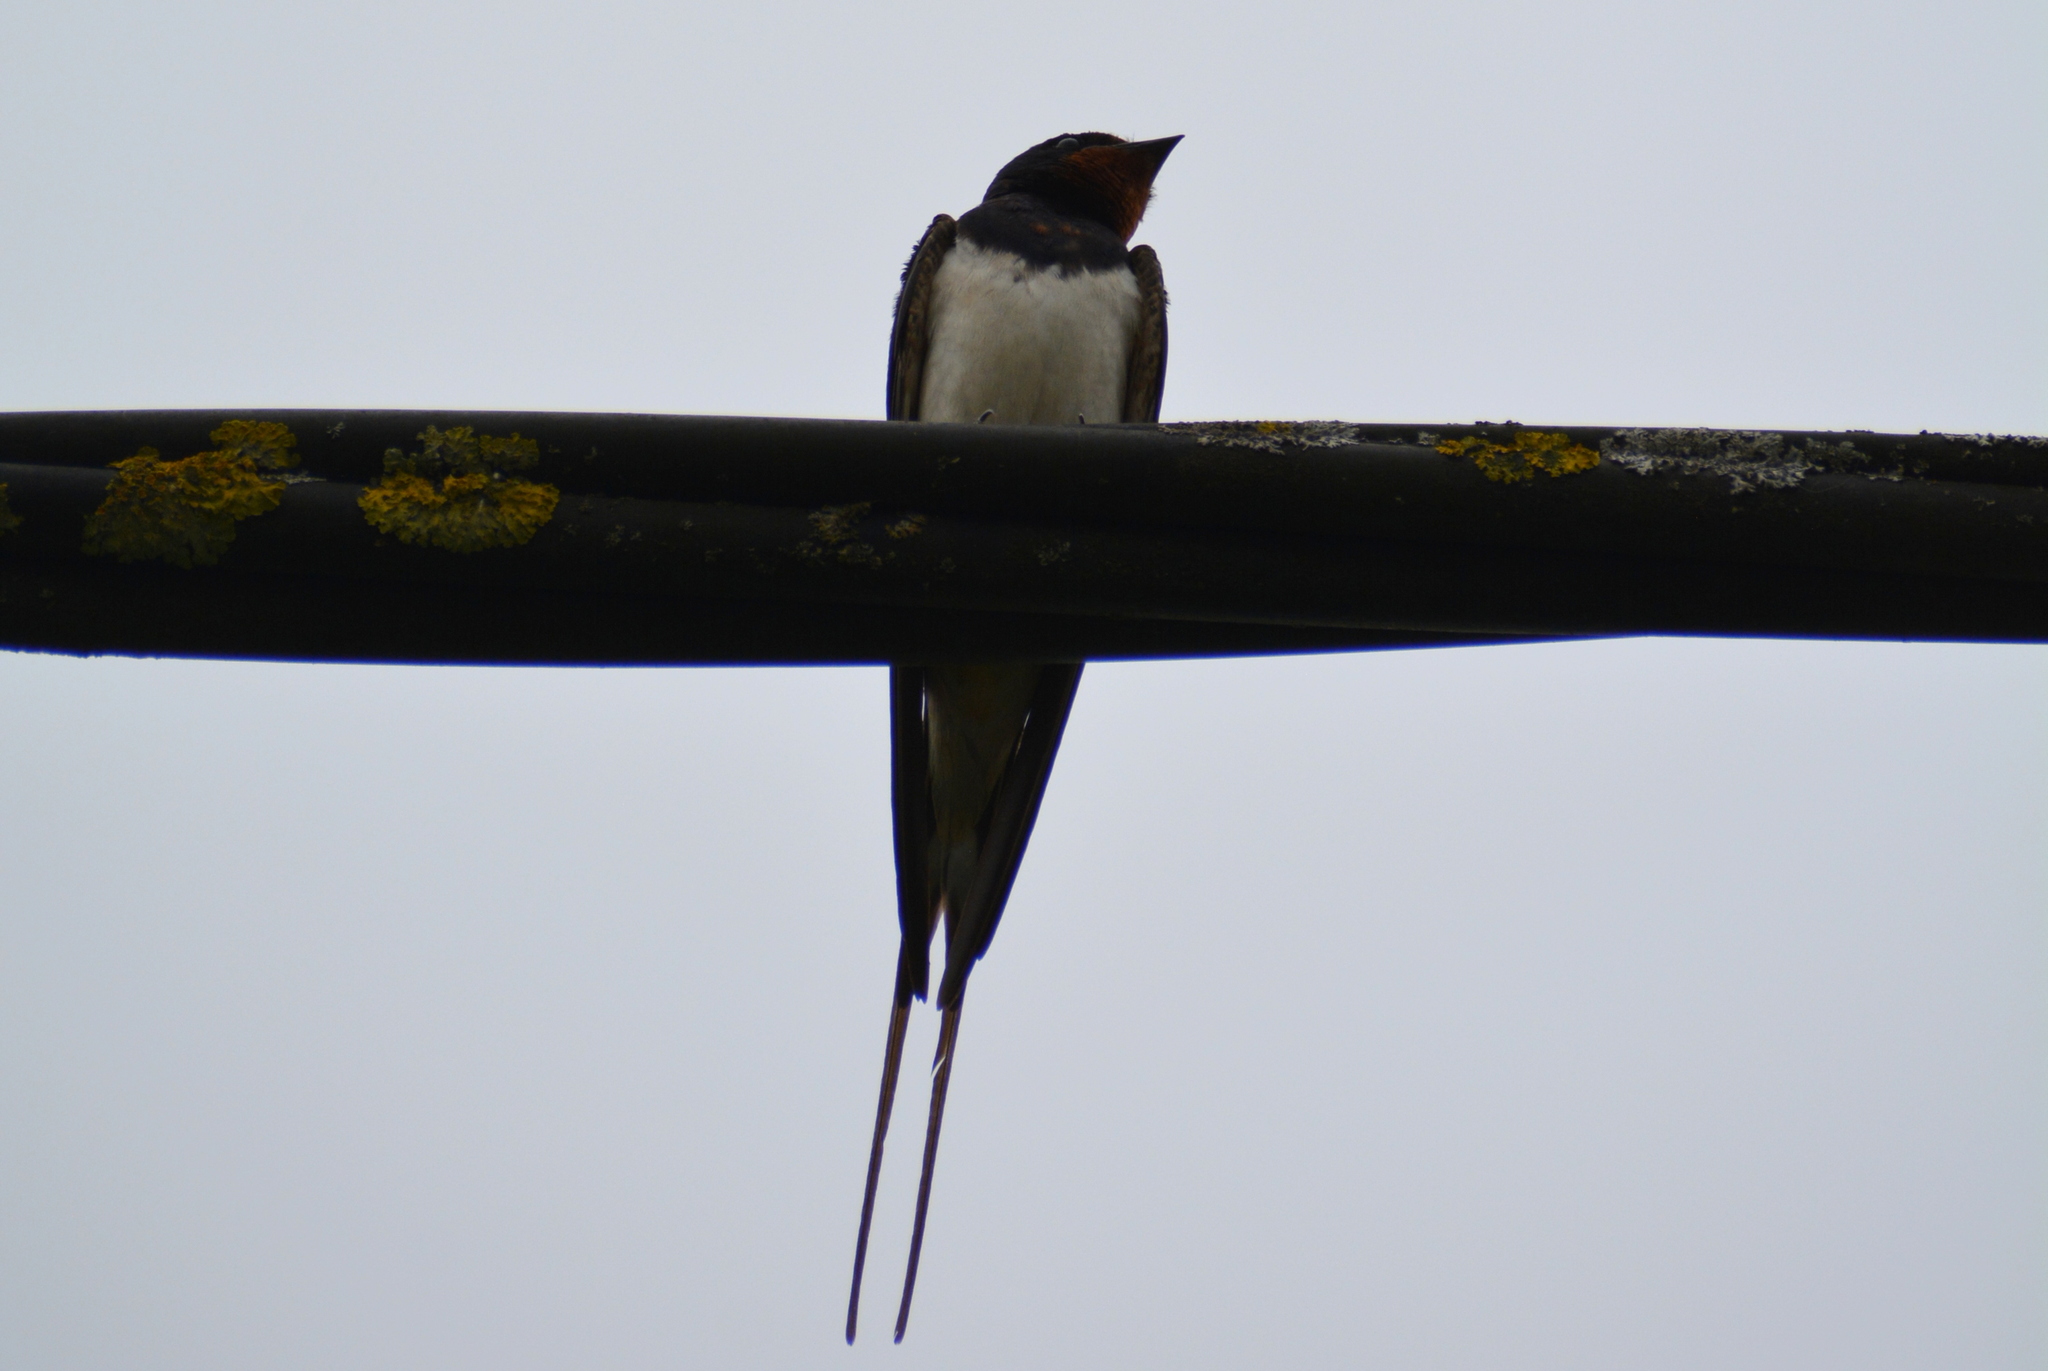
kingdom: Animalia
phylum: Chordata
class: Aves
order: Passeriformes
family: Hirundinidae
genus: Hirundo
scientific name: Hirundo rustica
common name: Barn swallow
